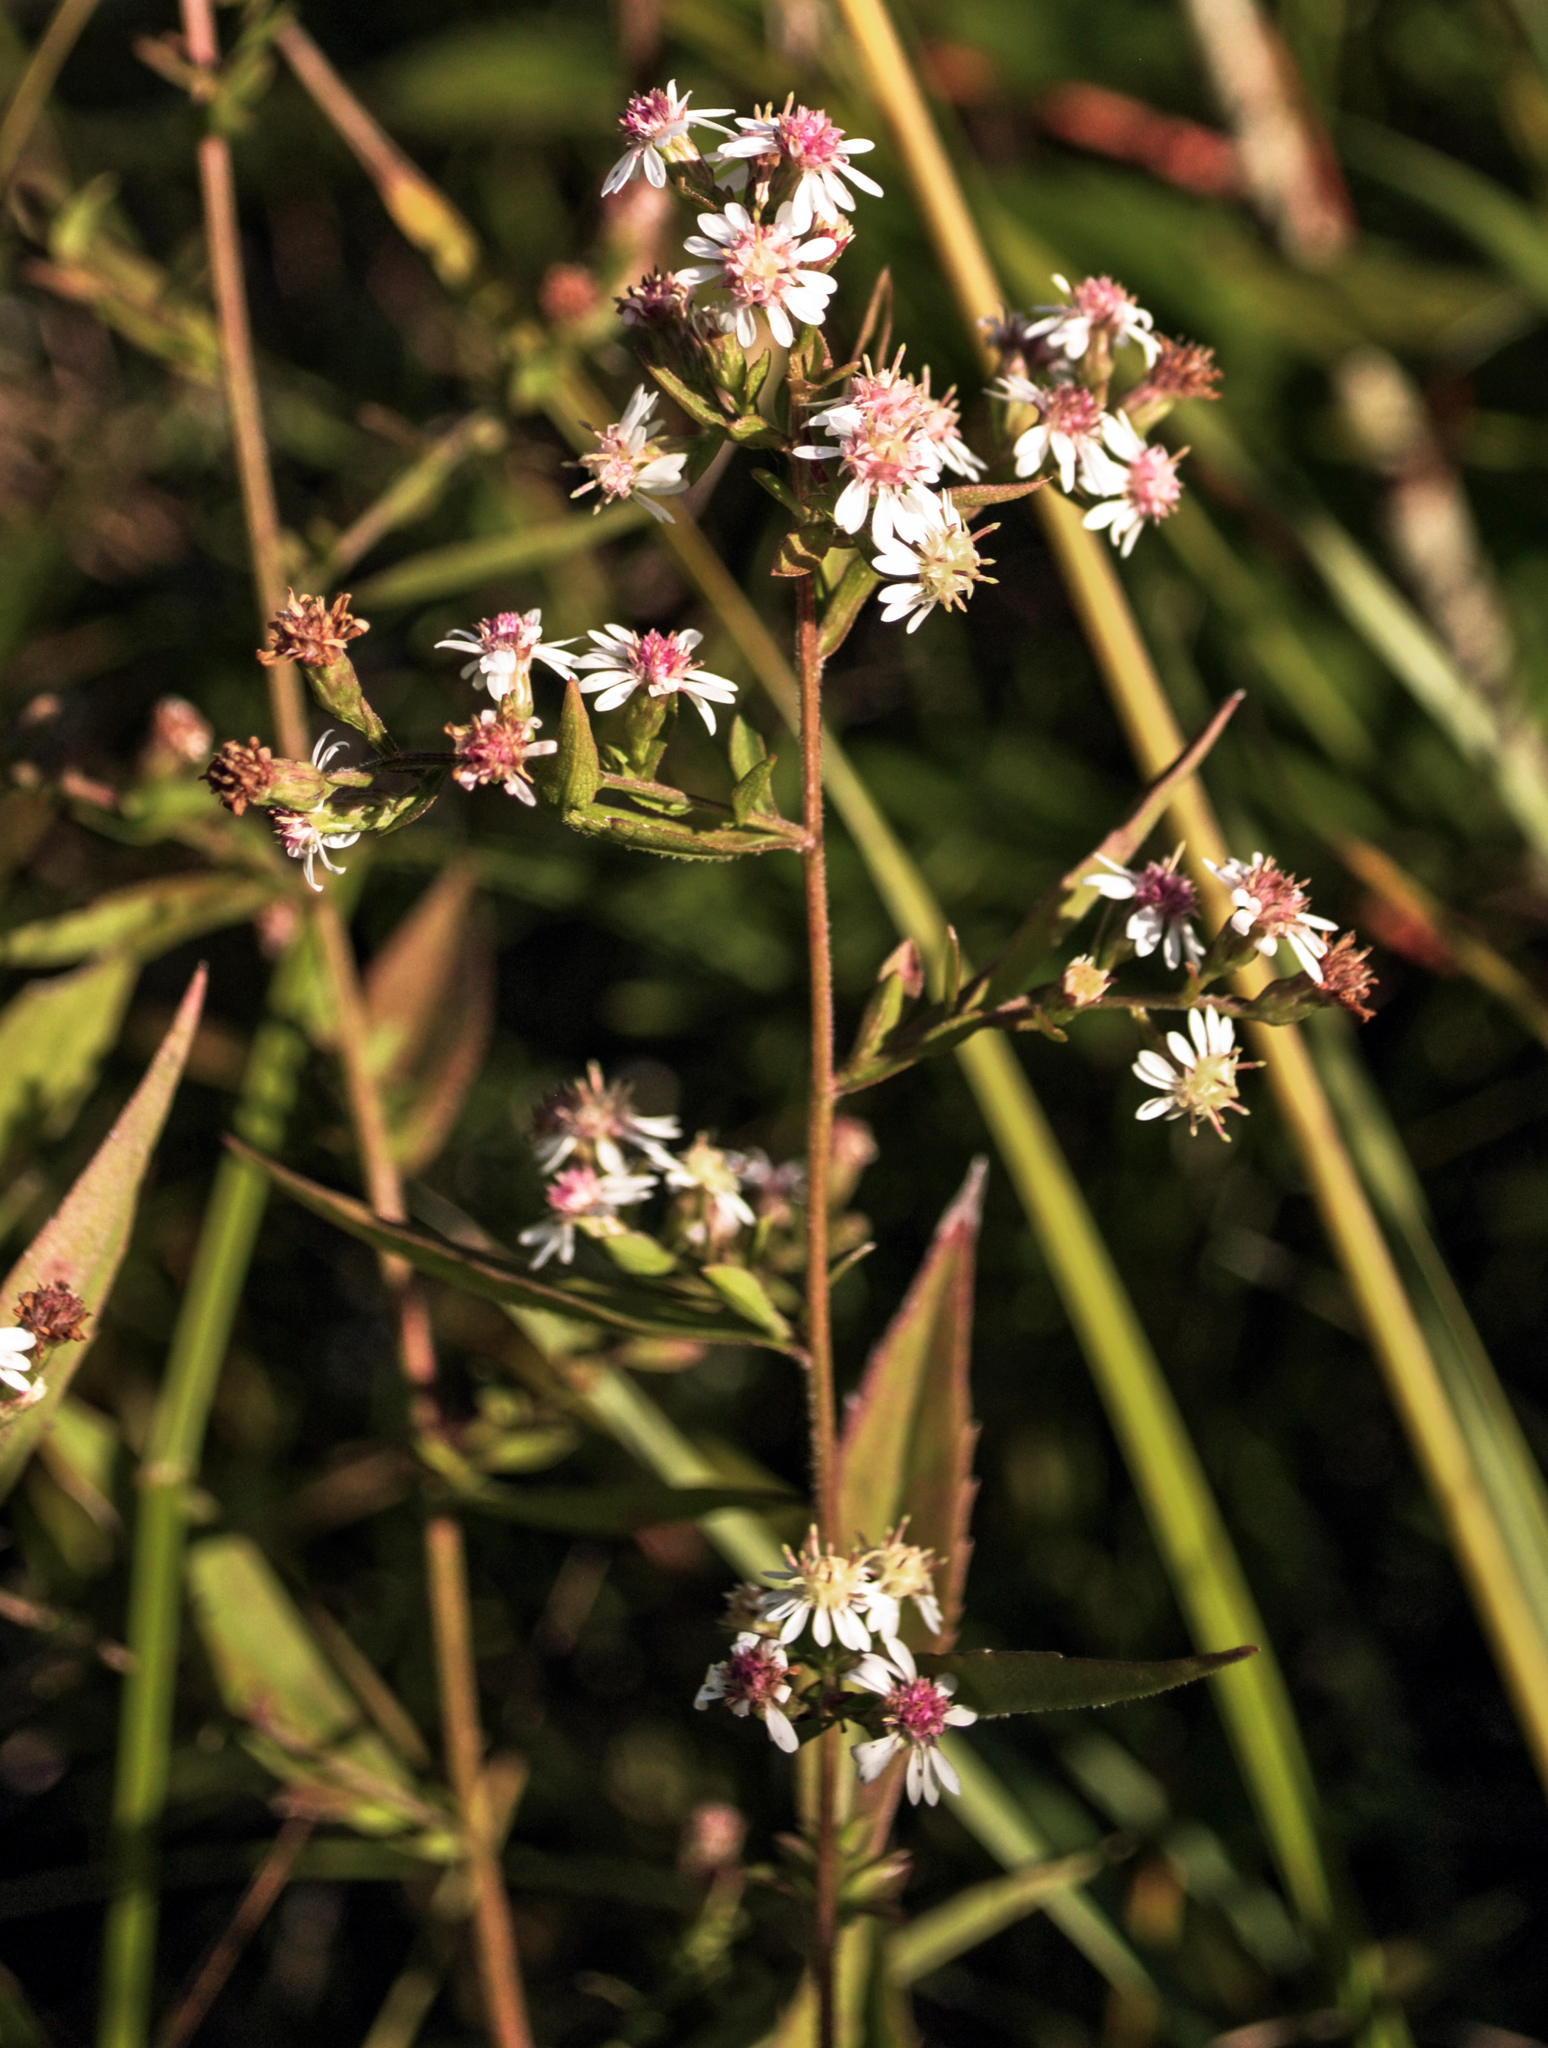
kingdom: Plantae
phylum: Tracheophyta
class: Magnoliopsida
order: Asterales
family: Asteraceae
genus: Symphyotrichum
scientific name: Symphyotrichum lateriflorum
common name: Calico aster
